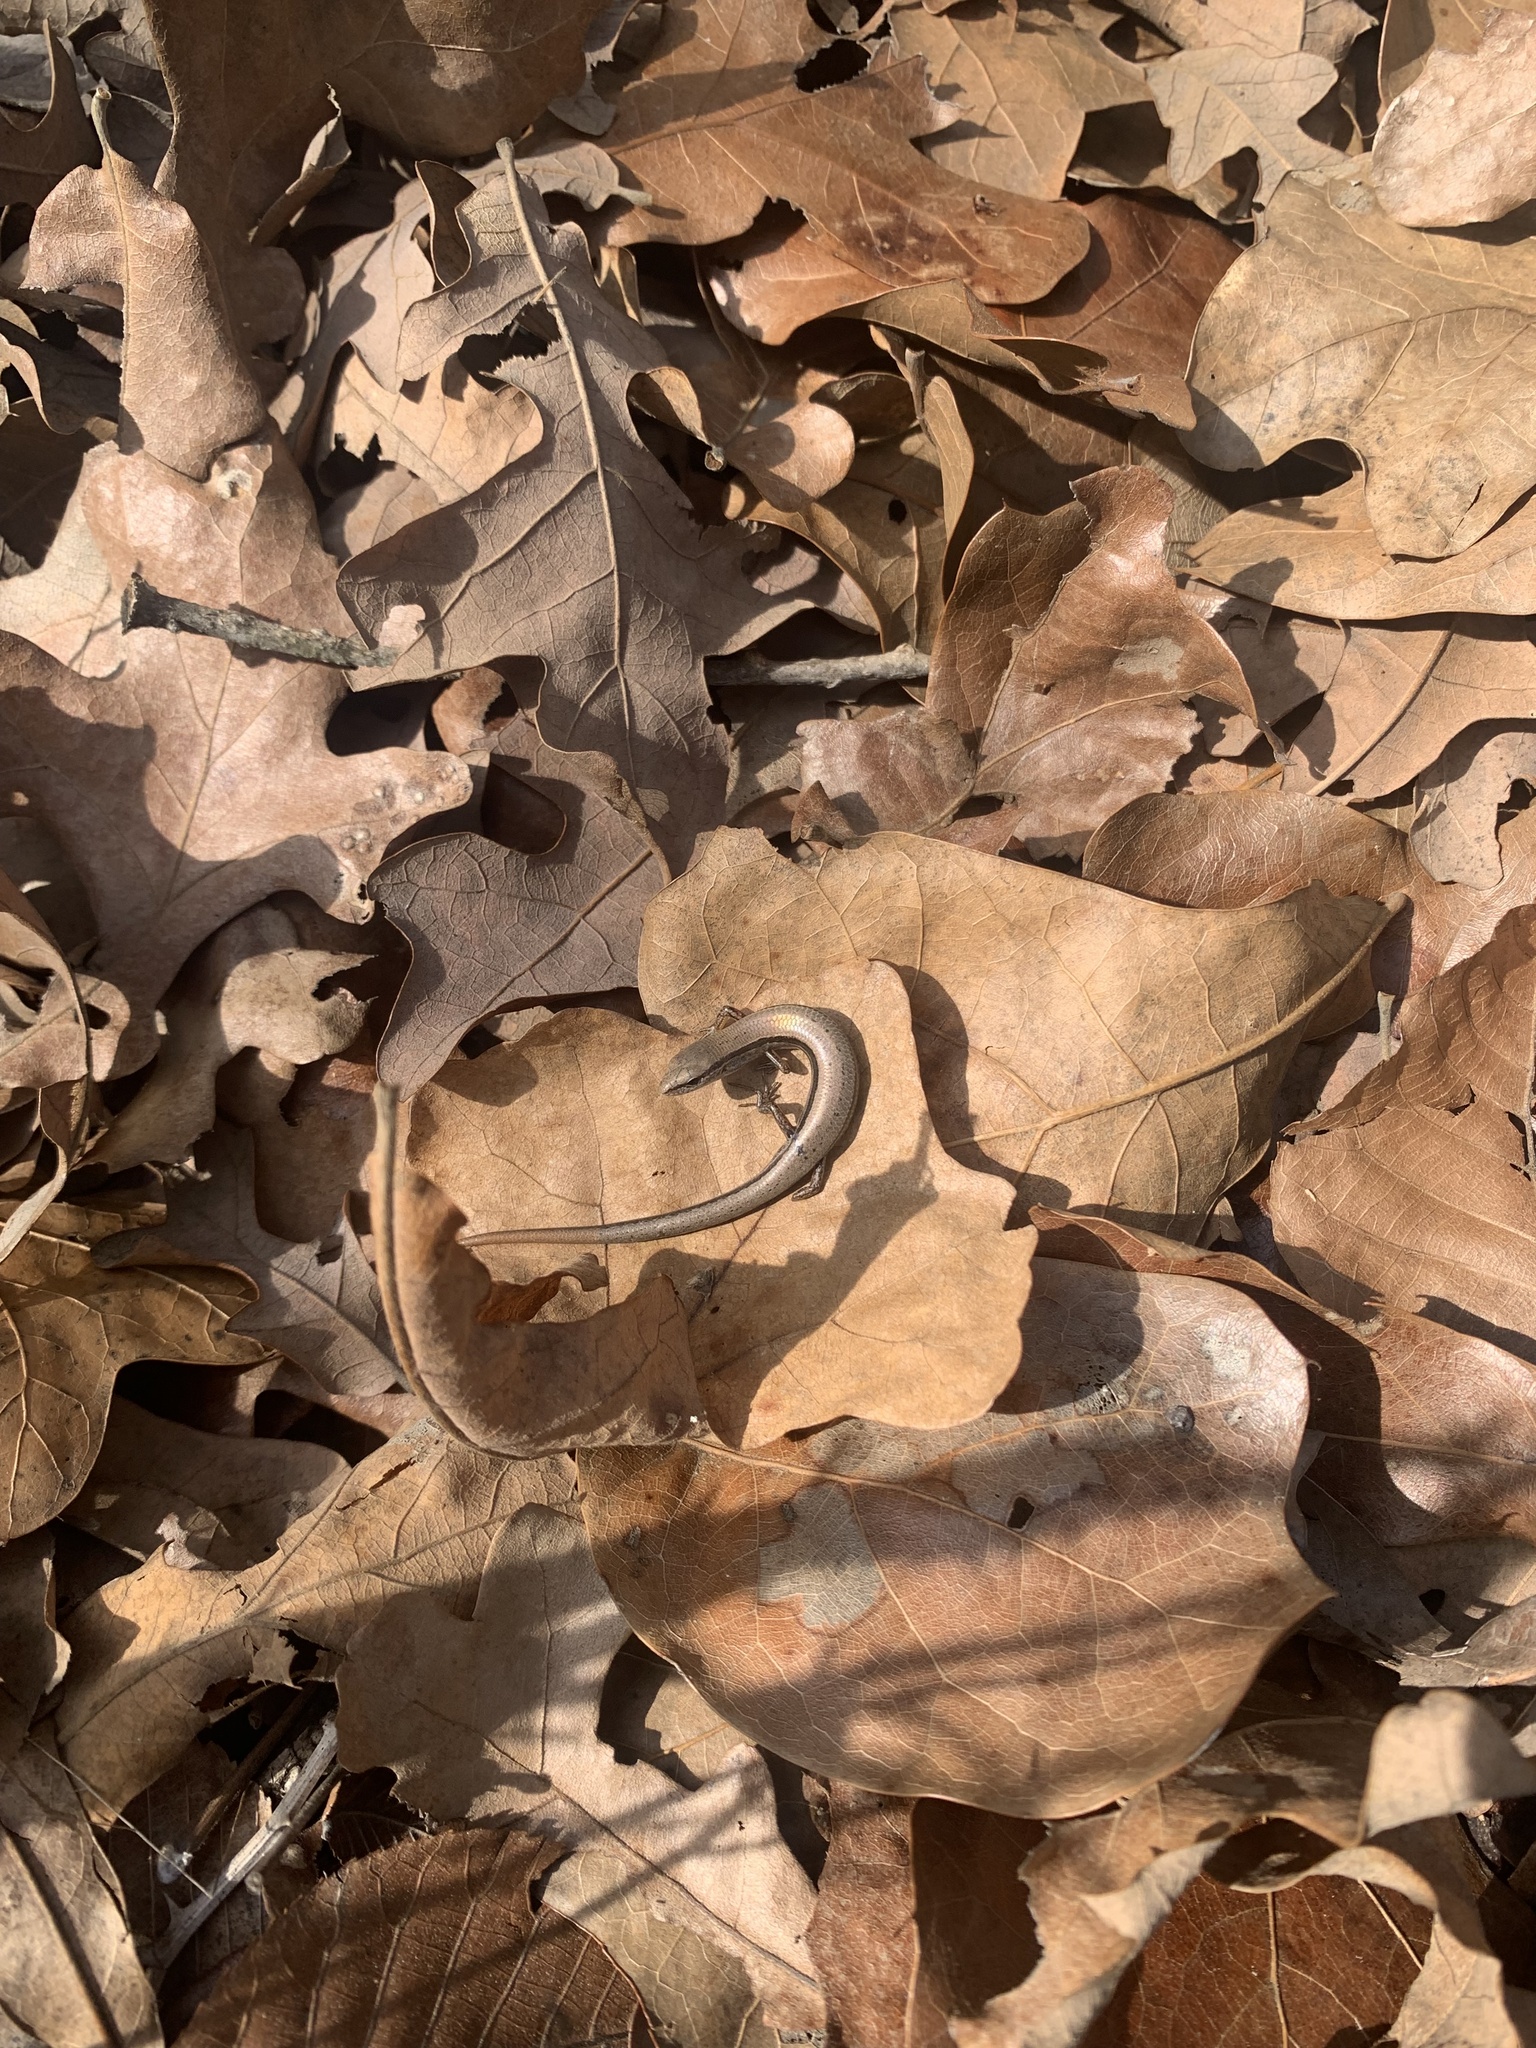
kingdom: Animalia
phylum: Chordata
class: Squamata
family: Scincidae
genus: Scincella
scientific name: Scincella lateralis
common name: Ground skink
